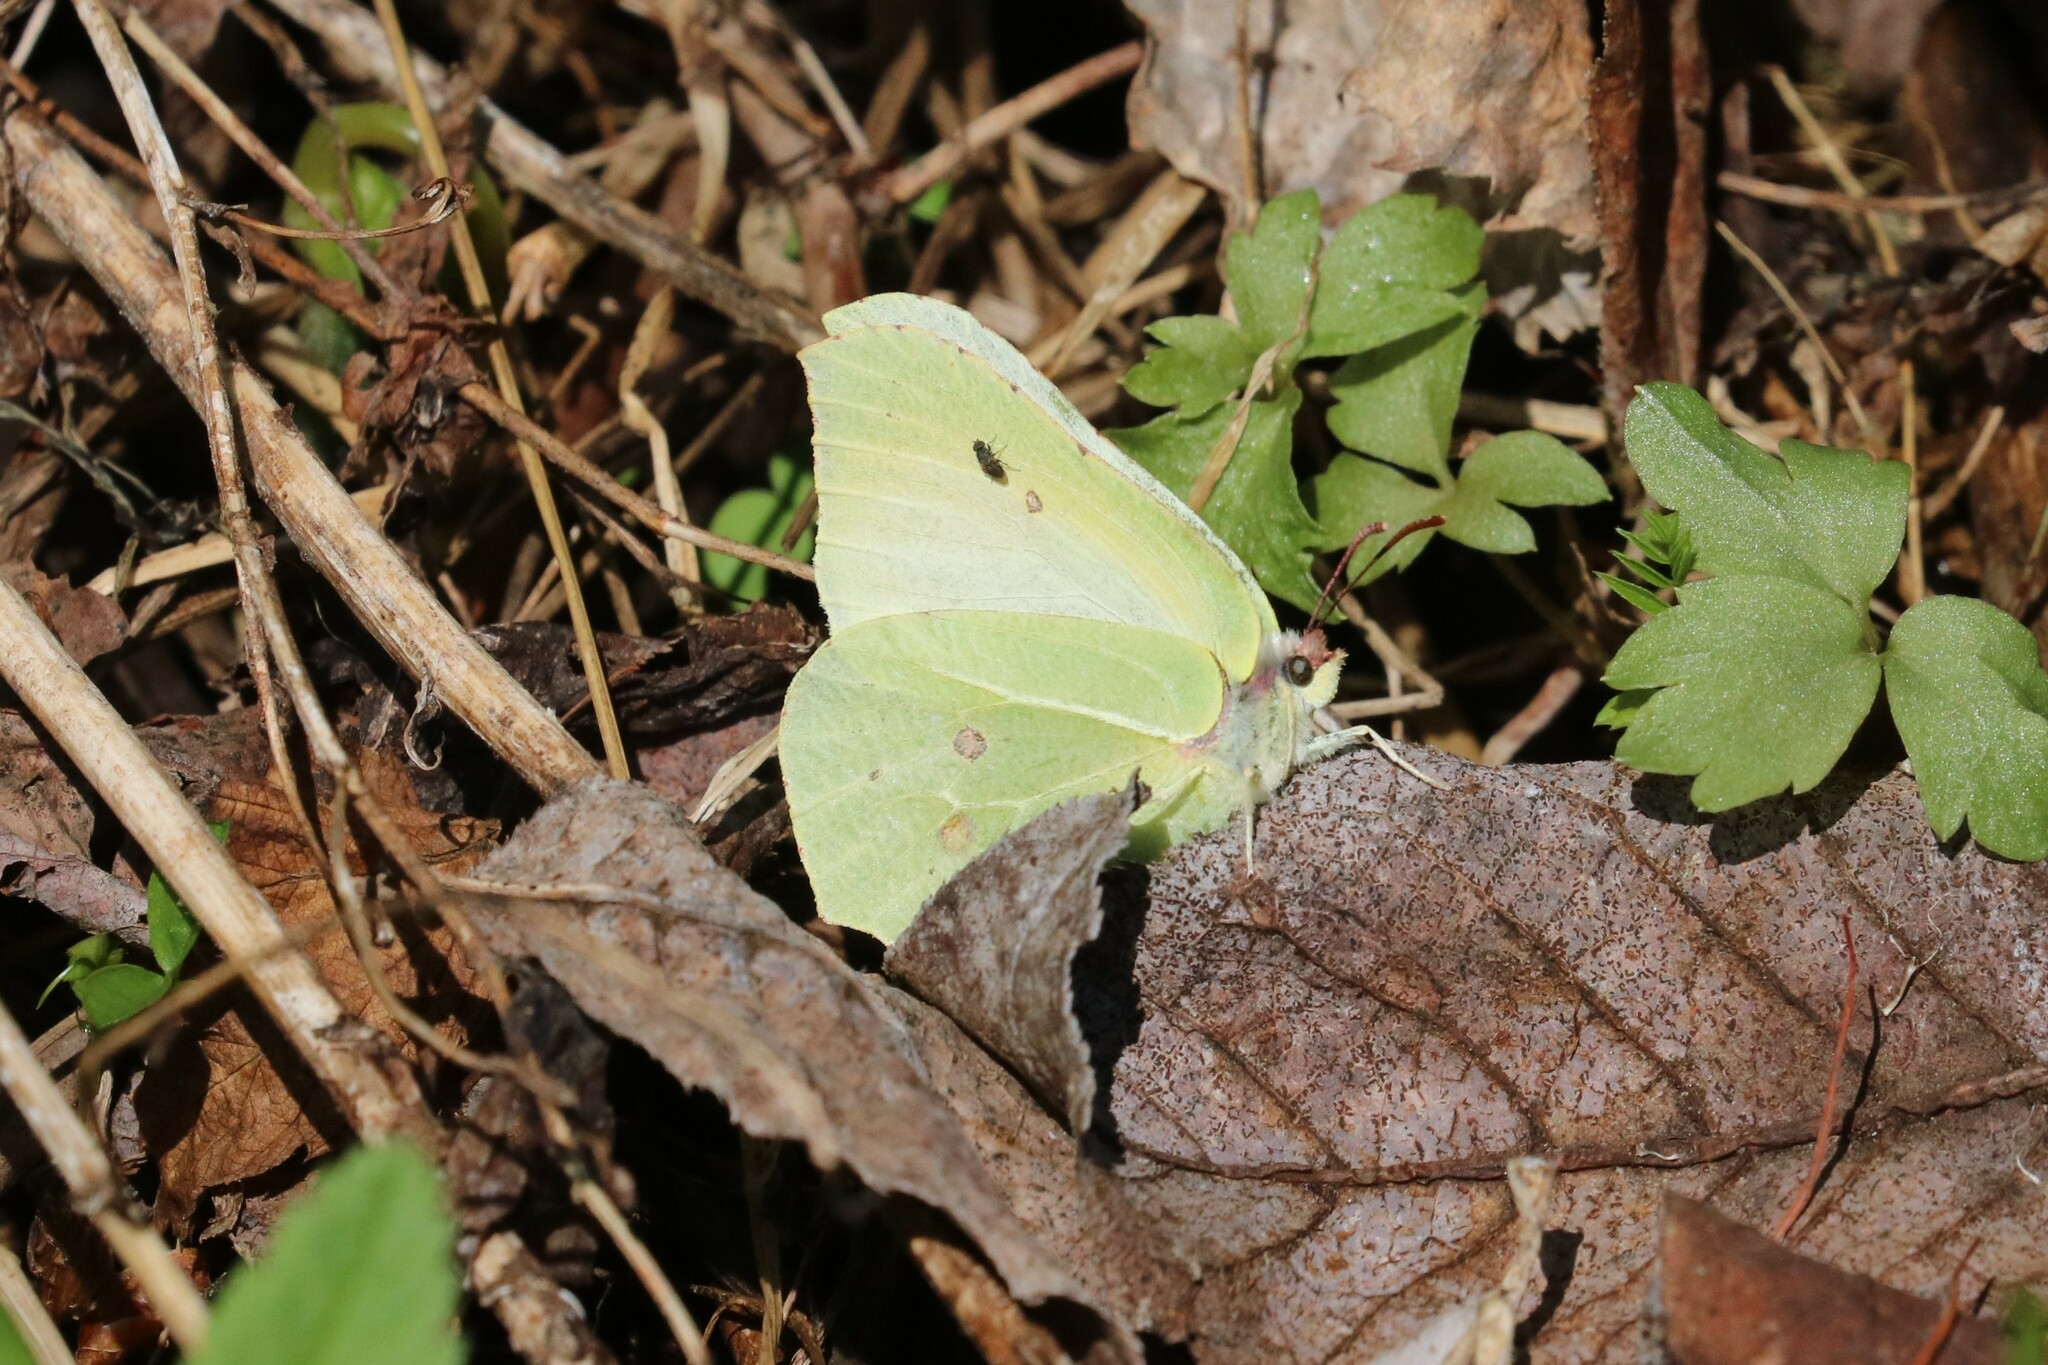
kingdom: Animalia
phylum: Arthropoda
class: Insecta
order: Lepidoptera
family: Pieridae
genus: Gonepteryx
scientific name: Gonepteryx rhamni
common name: Brimstone
